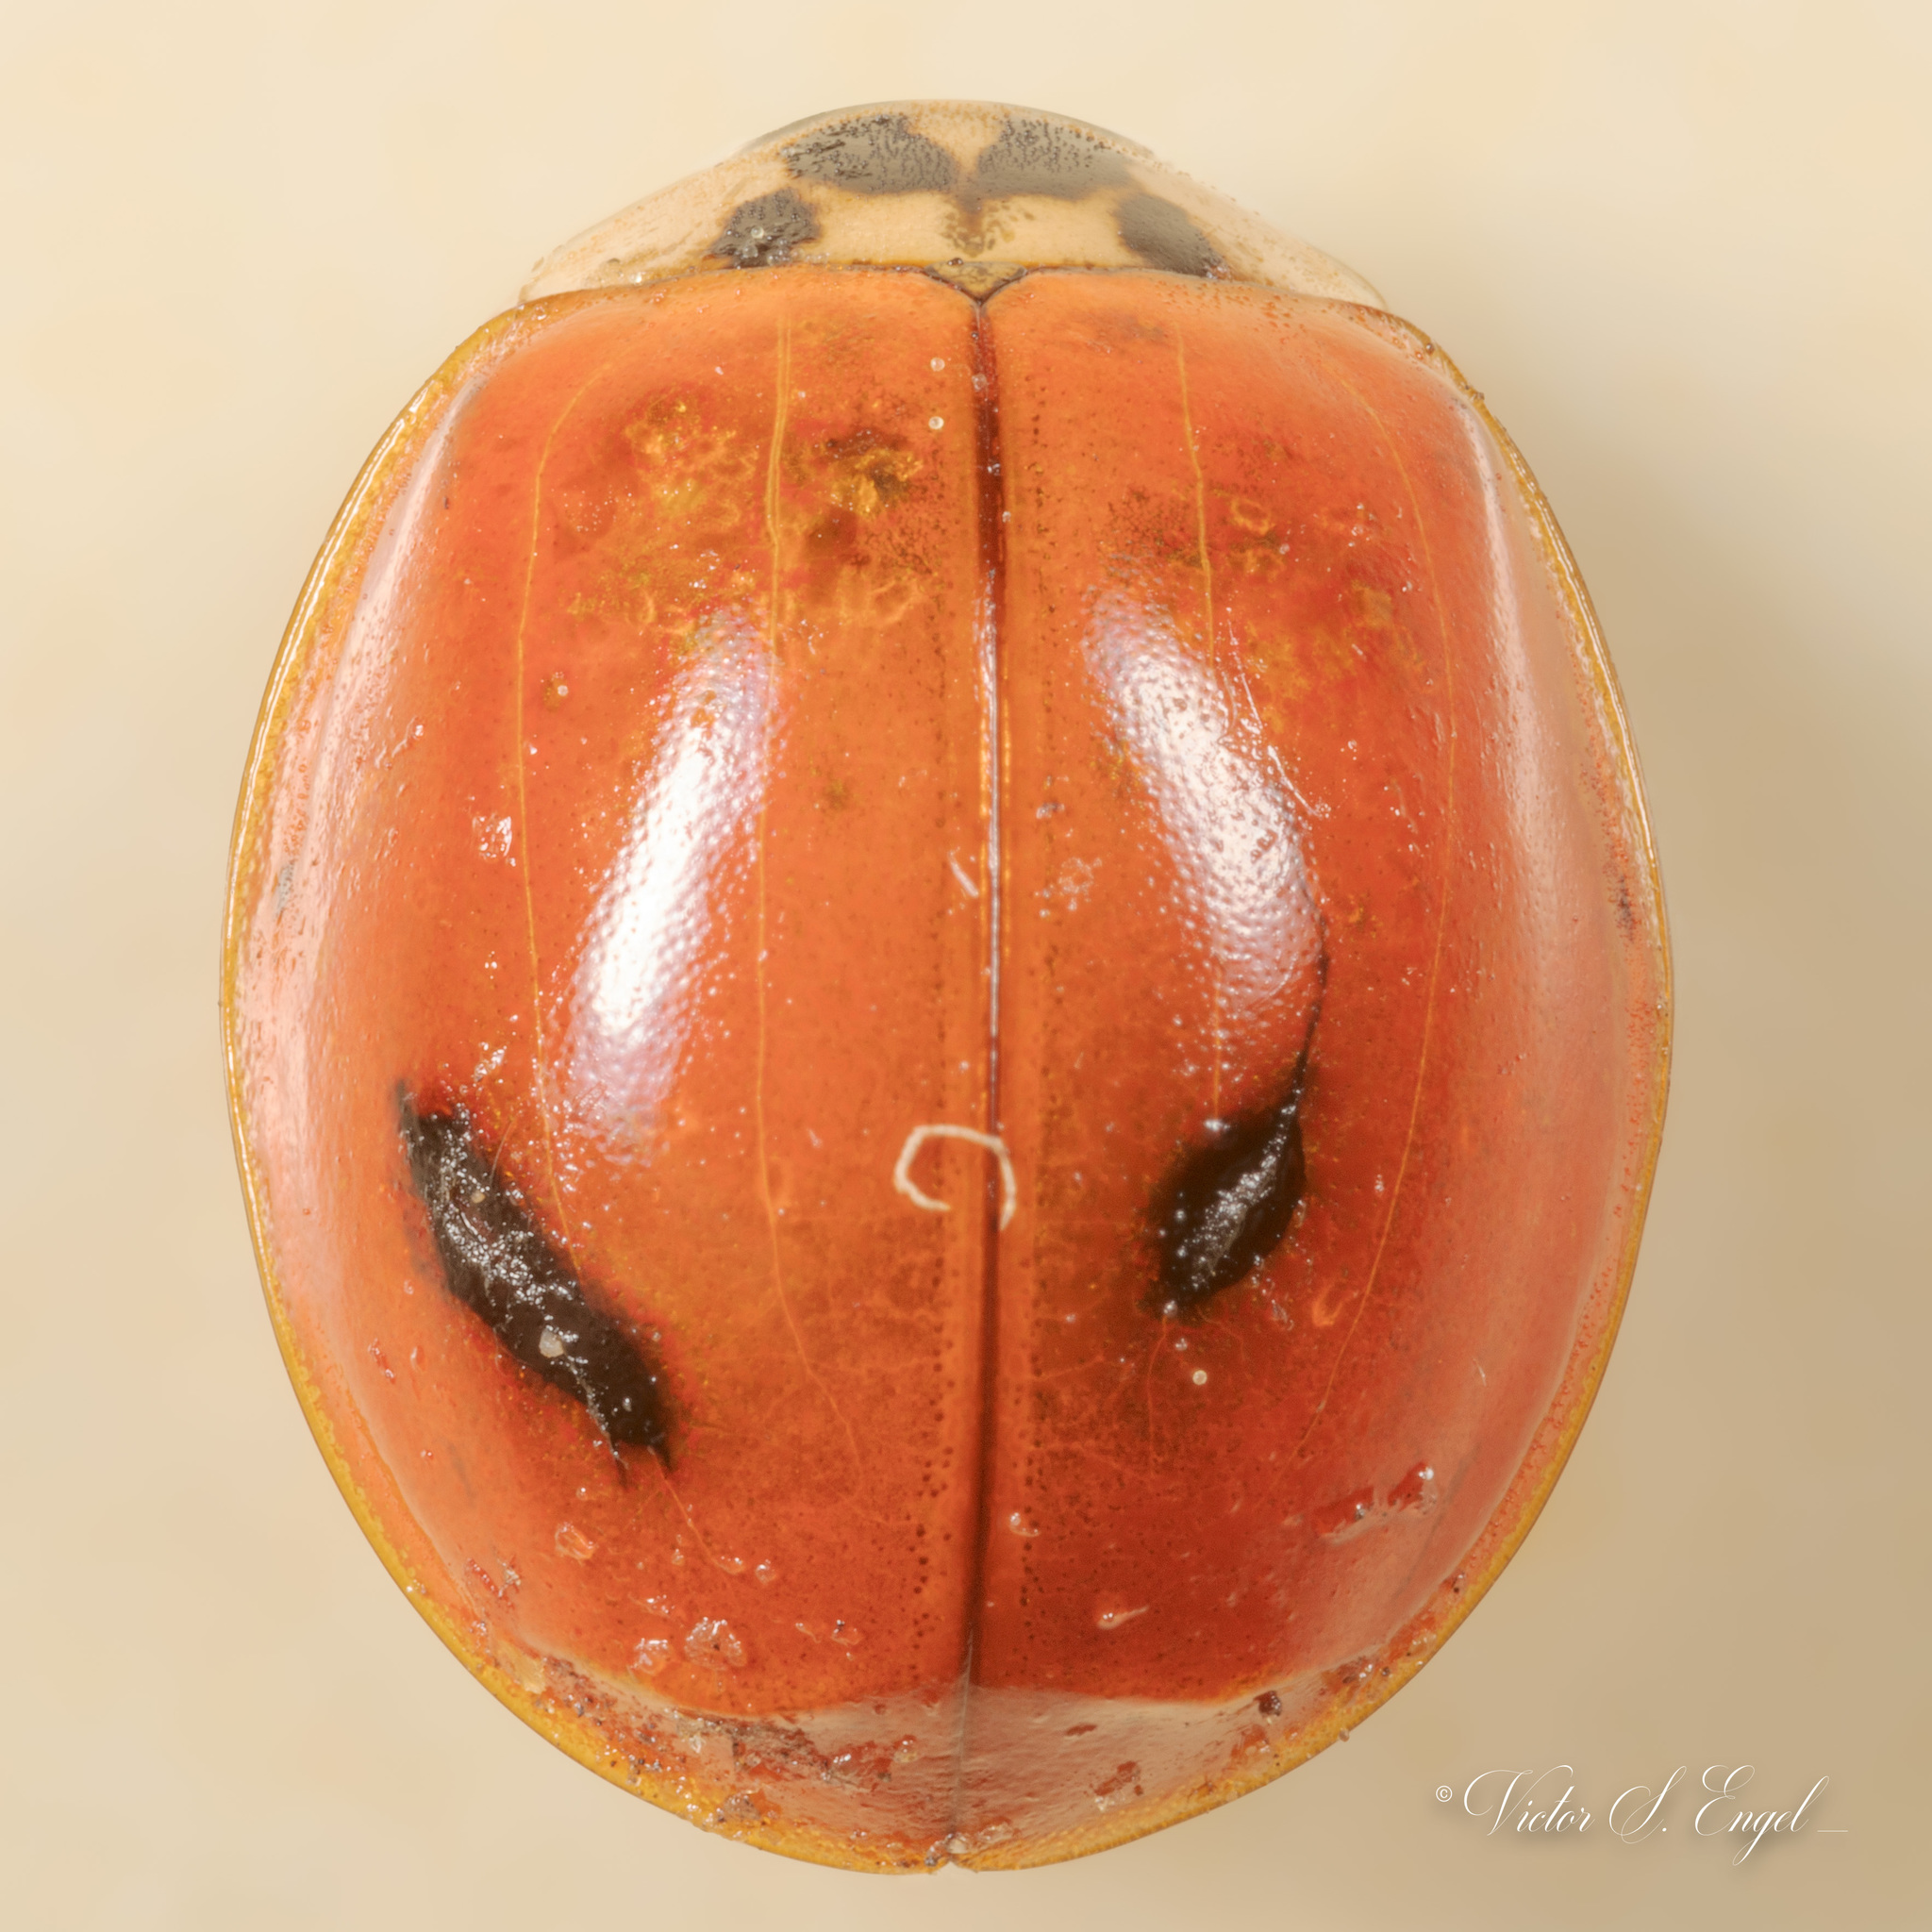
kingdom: Animalia
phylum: Arthropoda
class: Insecta
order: Coleoptera
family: Coccinellidae
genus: Harmonia
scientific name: Harmonia axyridis
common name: Harlequin ladybird
